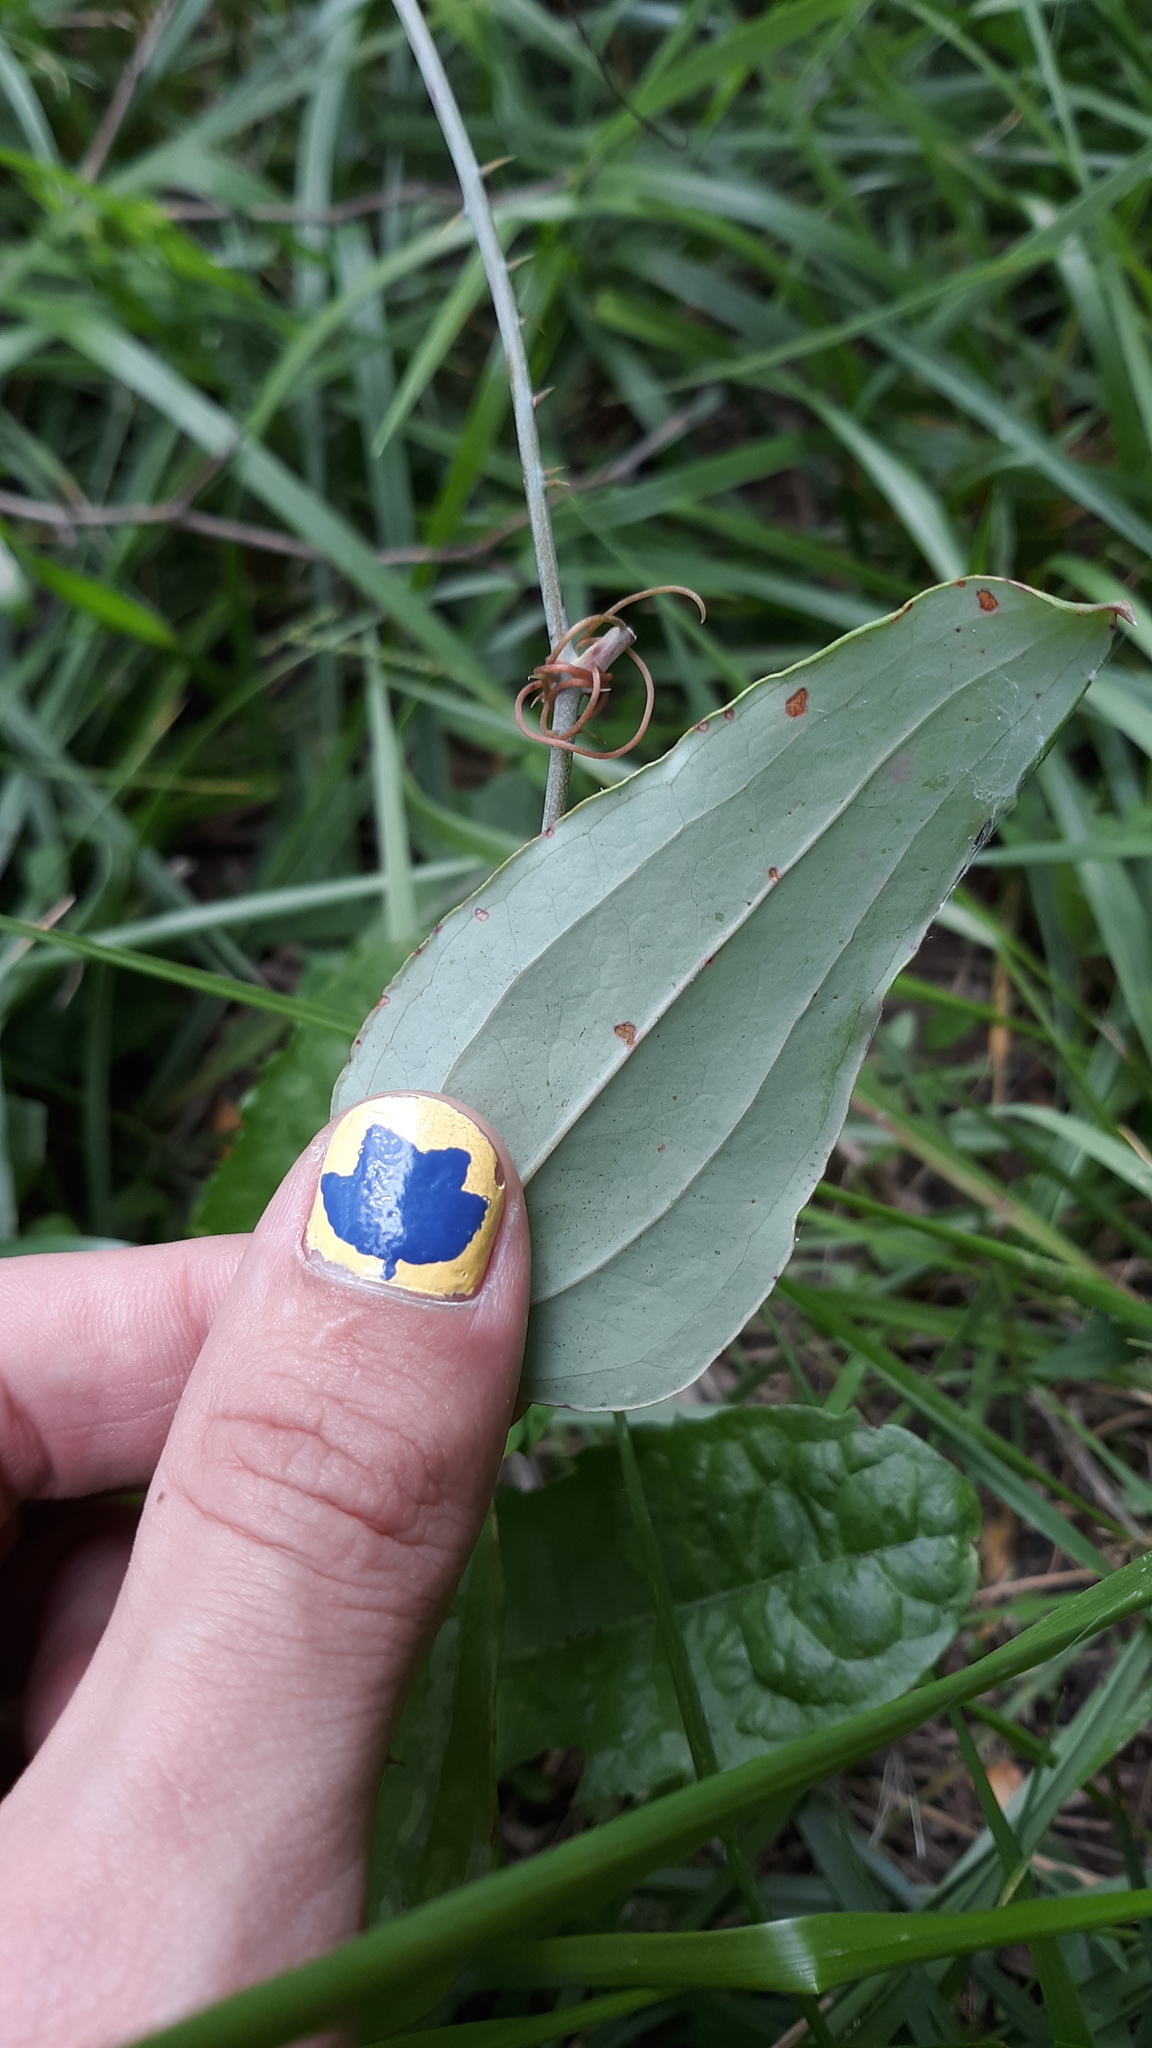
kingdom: Plantae
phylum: Tracheophyta
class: Liliopsida
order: Liliales
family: Smilacaceae
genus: Smilax
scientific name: Smilax glauca
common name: Cat greenbrier
